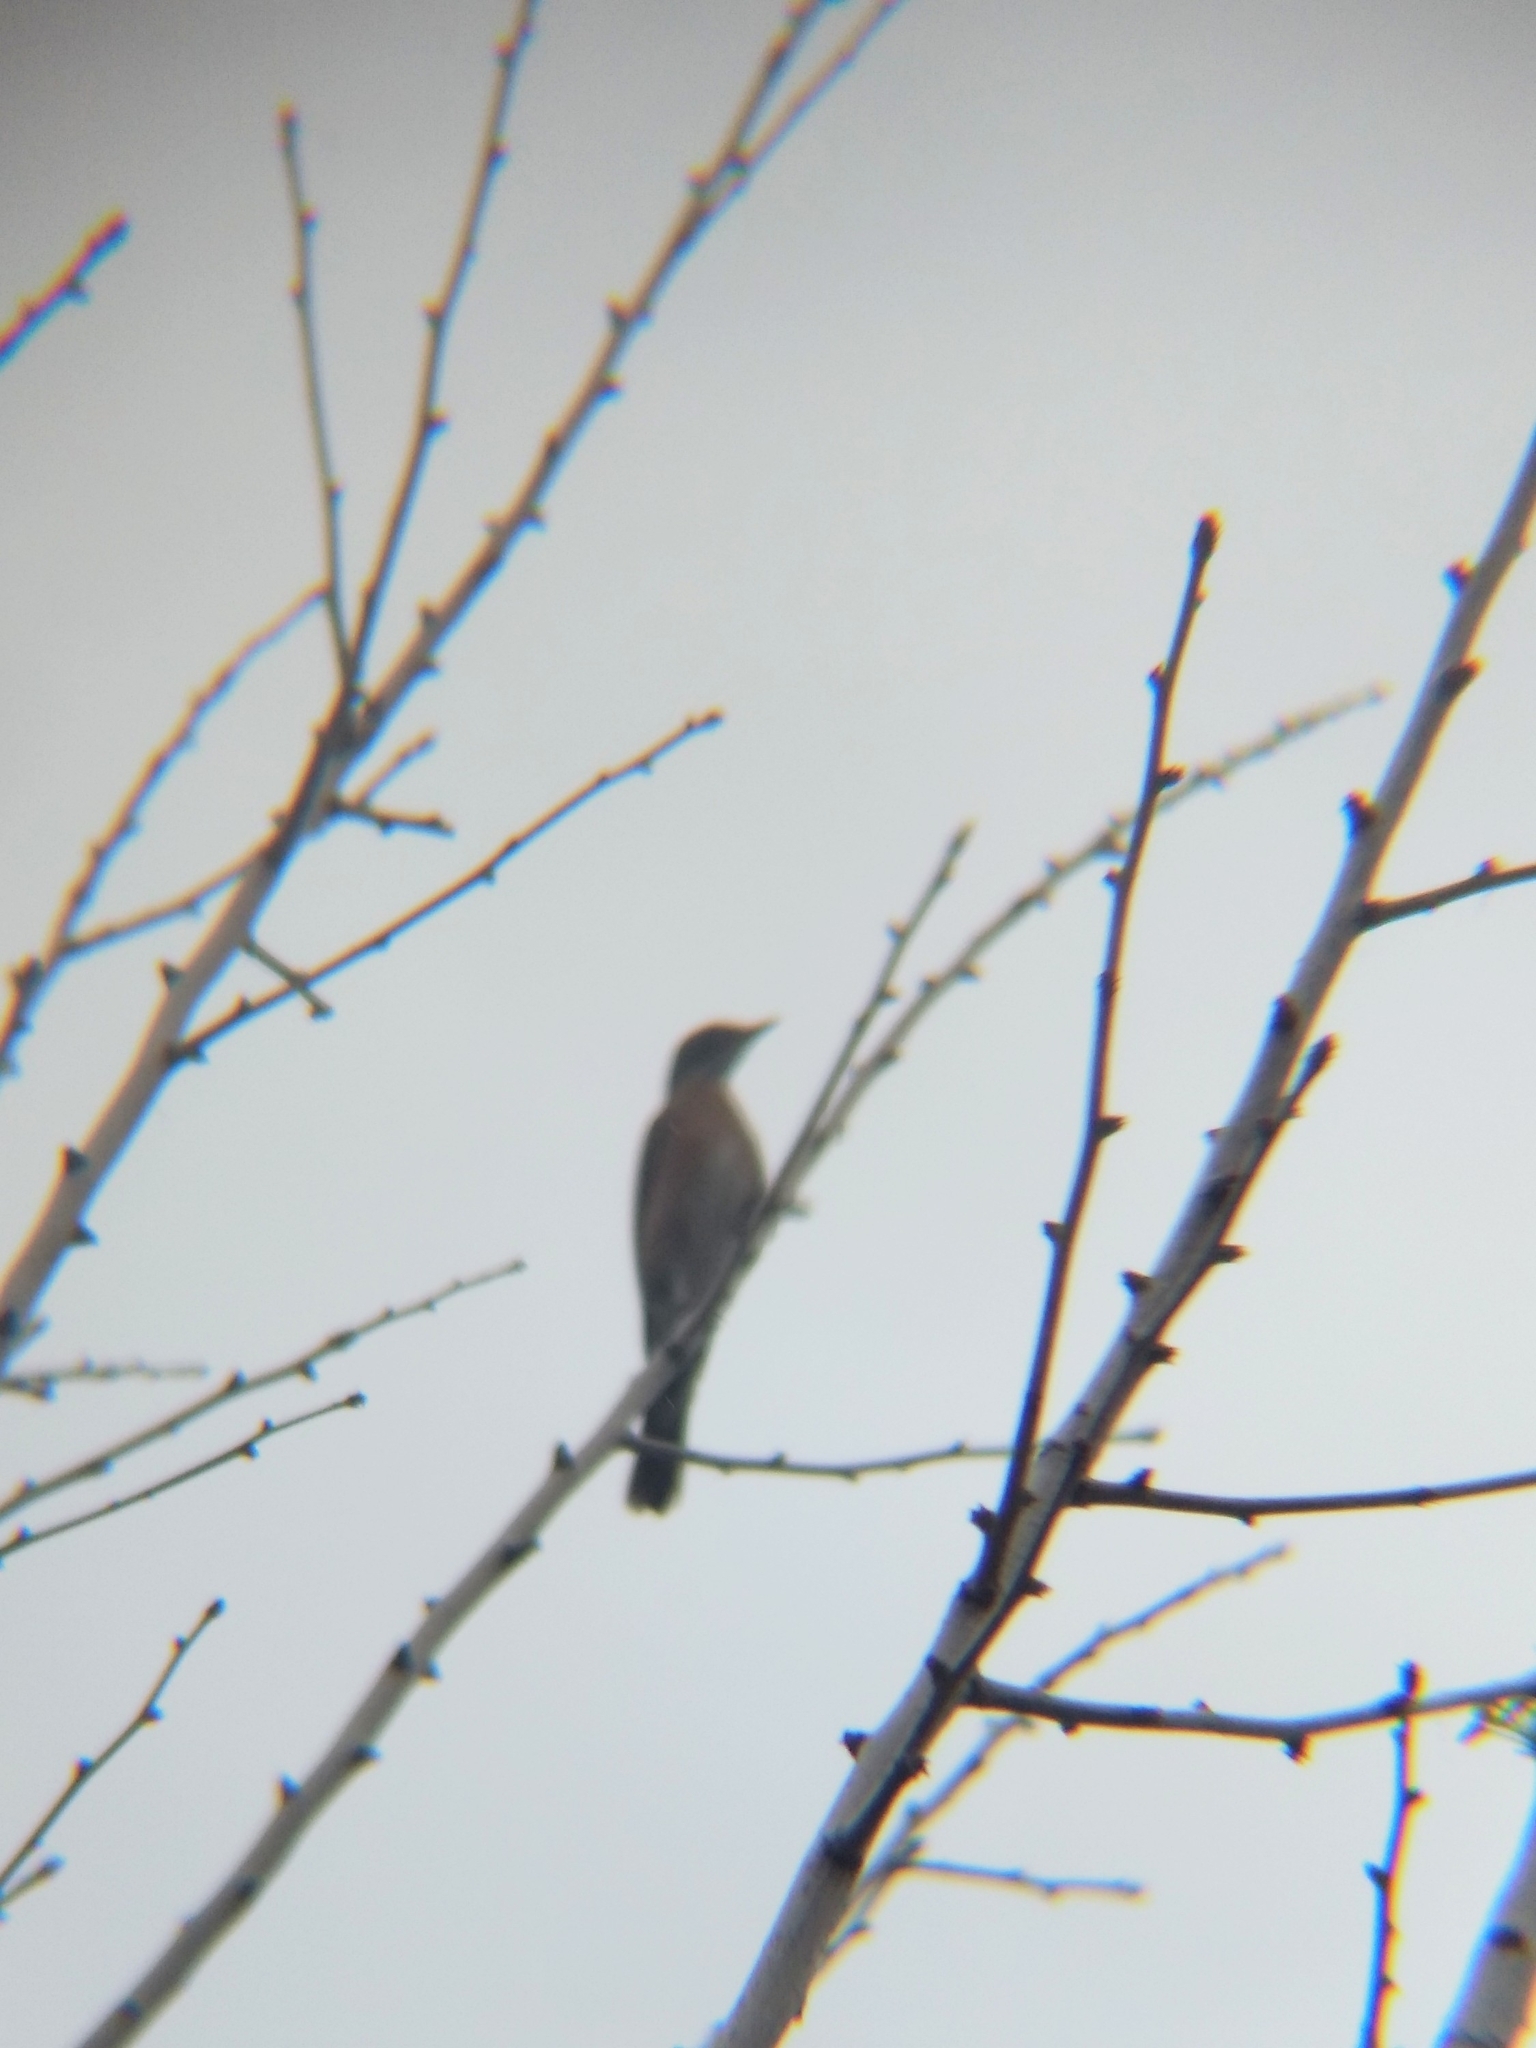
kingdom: Animalia
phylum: Chordata
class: Aves
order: Passeriformes
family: Turdidae
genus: Turdus
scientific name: Turdus migratorius
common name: American robin
